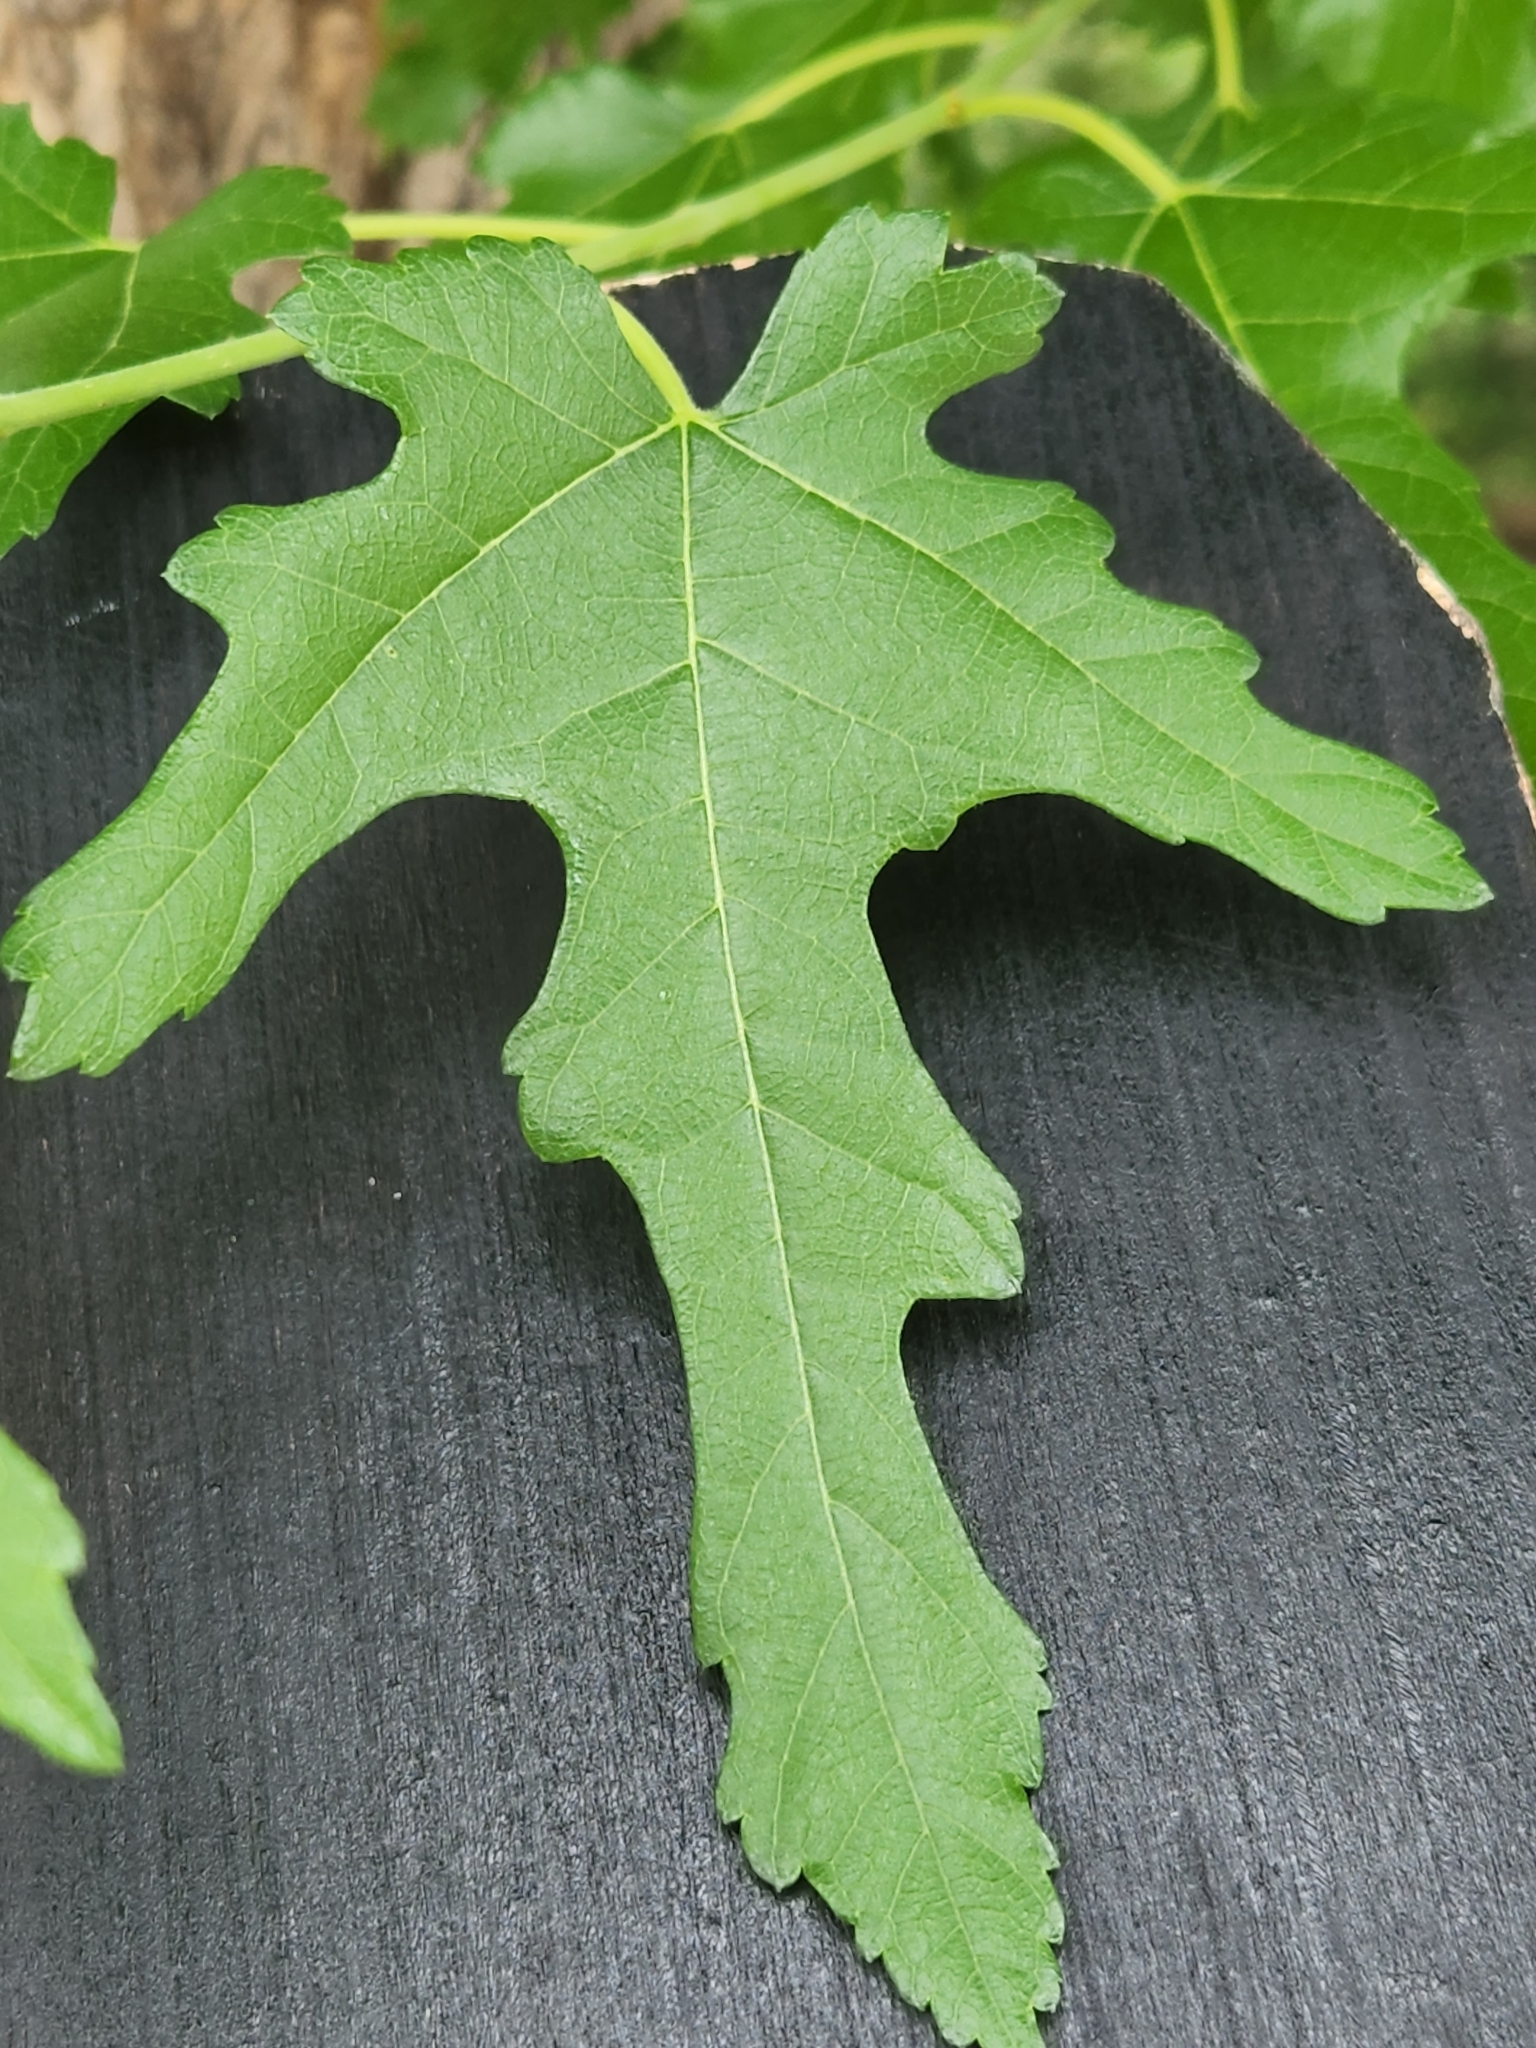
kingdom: Plantae
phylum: Tracheophyta
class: Magnoliopsida
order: Rosales
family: Moraceae
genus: Morus
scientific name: Morus alba
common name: White mulberry
